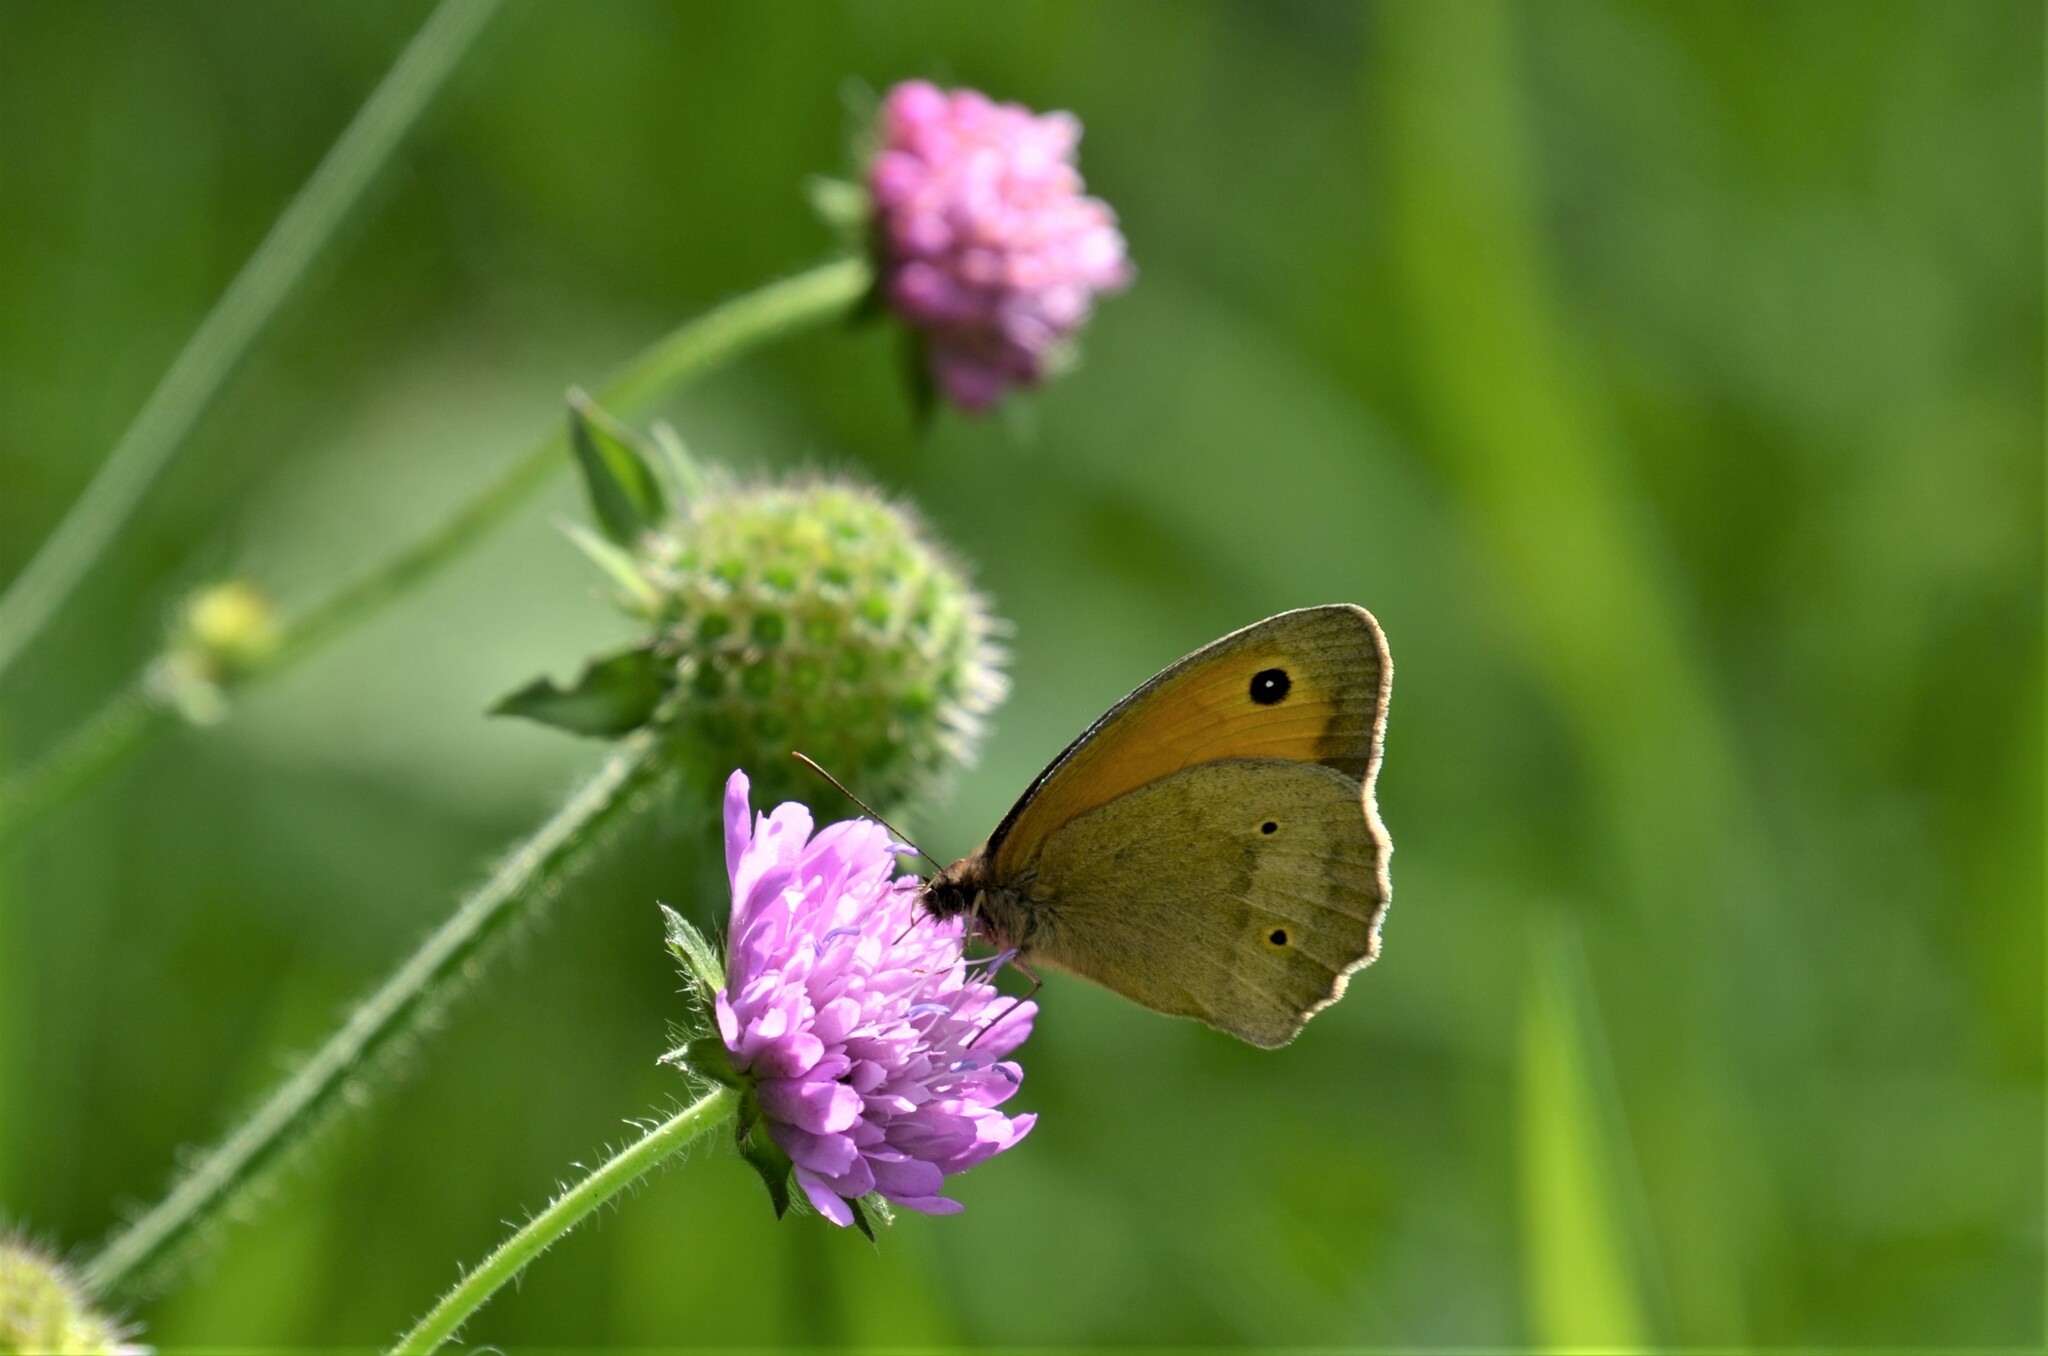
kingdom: Animalia
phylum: Arthropoda
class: Insecta
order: Lepidoptera
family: Nymphalidae
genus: Maniola
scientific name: Maniola jurtina
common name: Meadow brown
